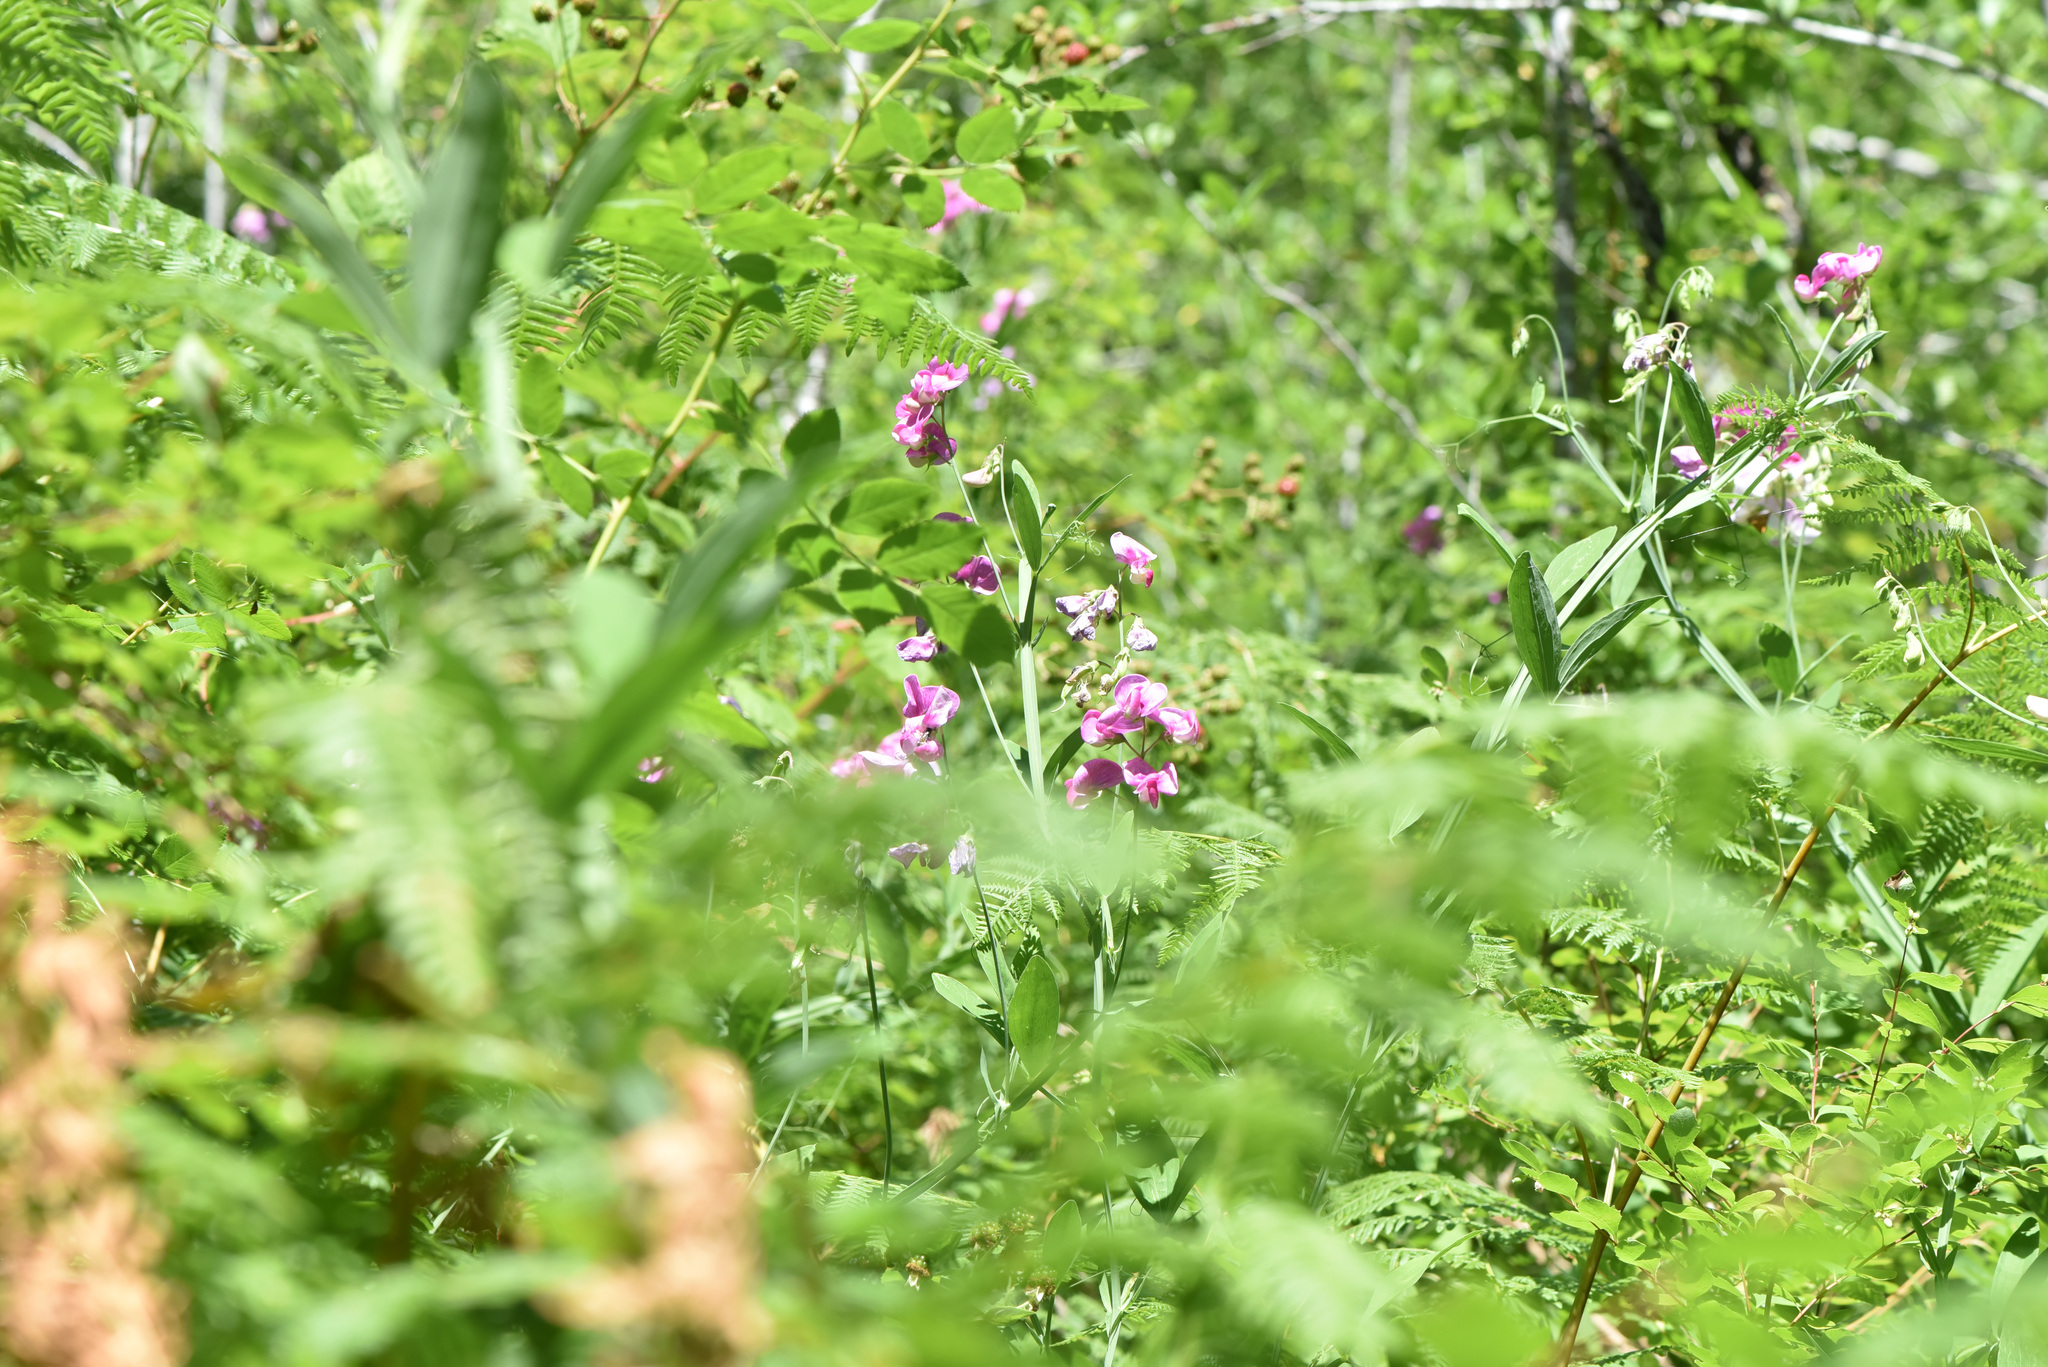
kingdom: Plantae
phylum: Tracheophyta
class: Magnoliopsida
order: Fabales
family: Fabaceae
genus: Lathyrus
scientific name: Lathyrus latifolius
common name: Perennial pea
